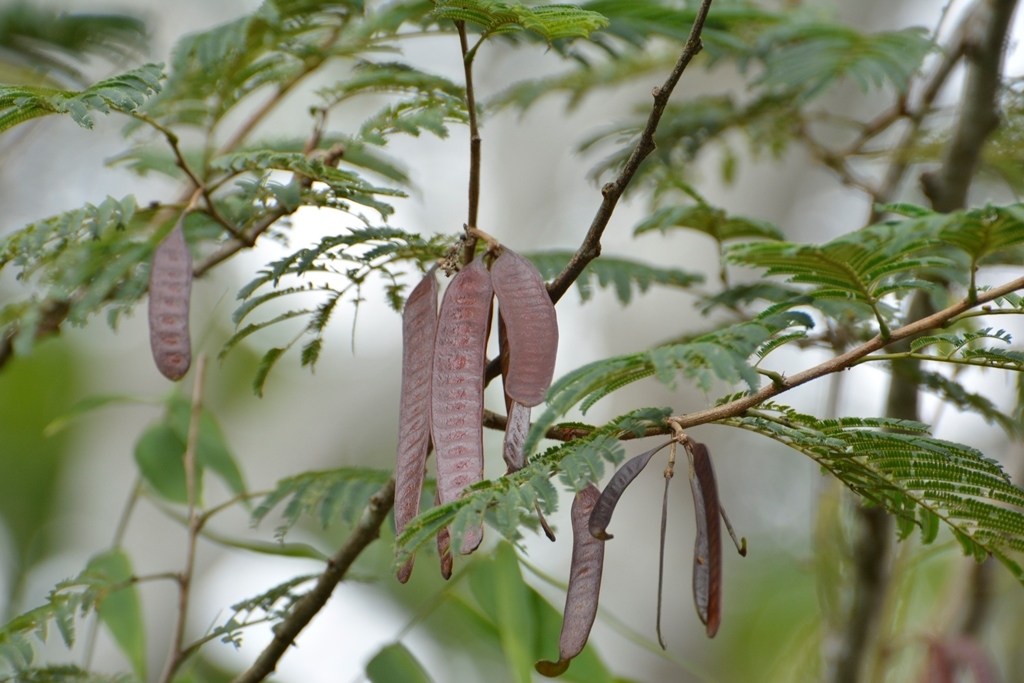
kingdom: Plantae
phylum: Tracheophyta
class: Magnoliopsida
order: Fabales
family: Fabaceae
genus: Leucaena
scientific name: Leucaena diversifolia
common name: Red leucaena
